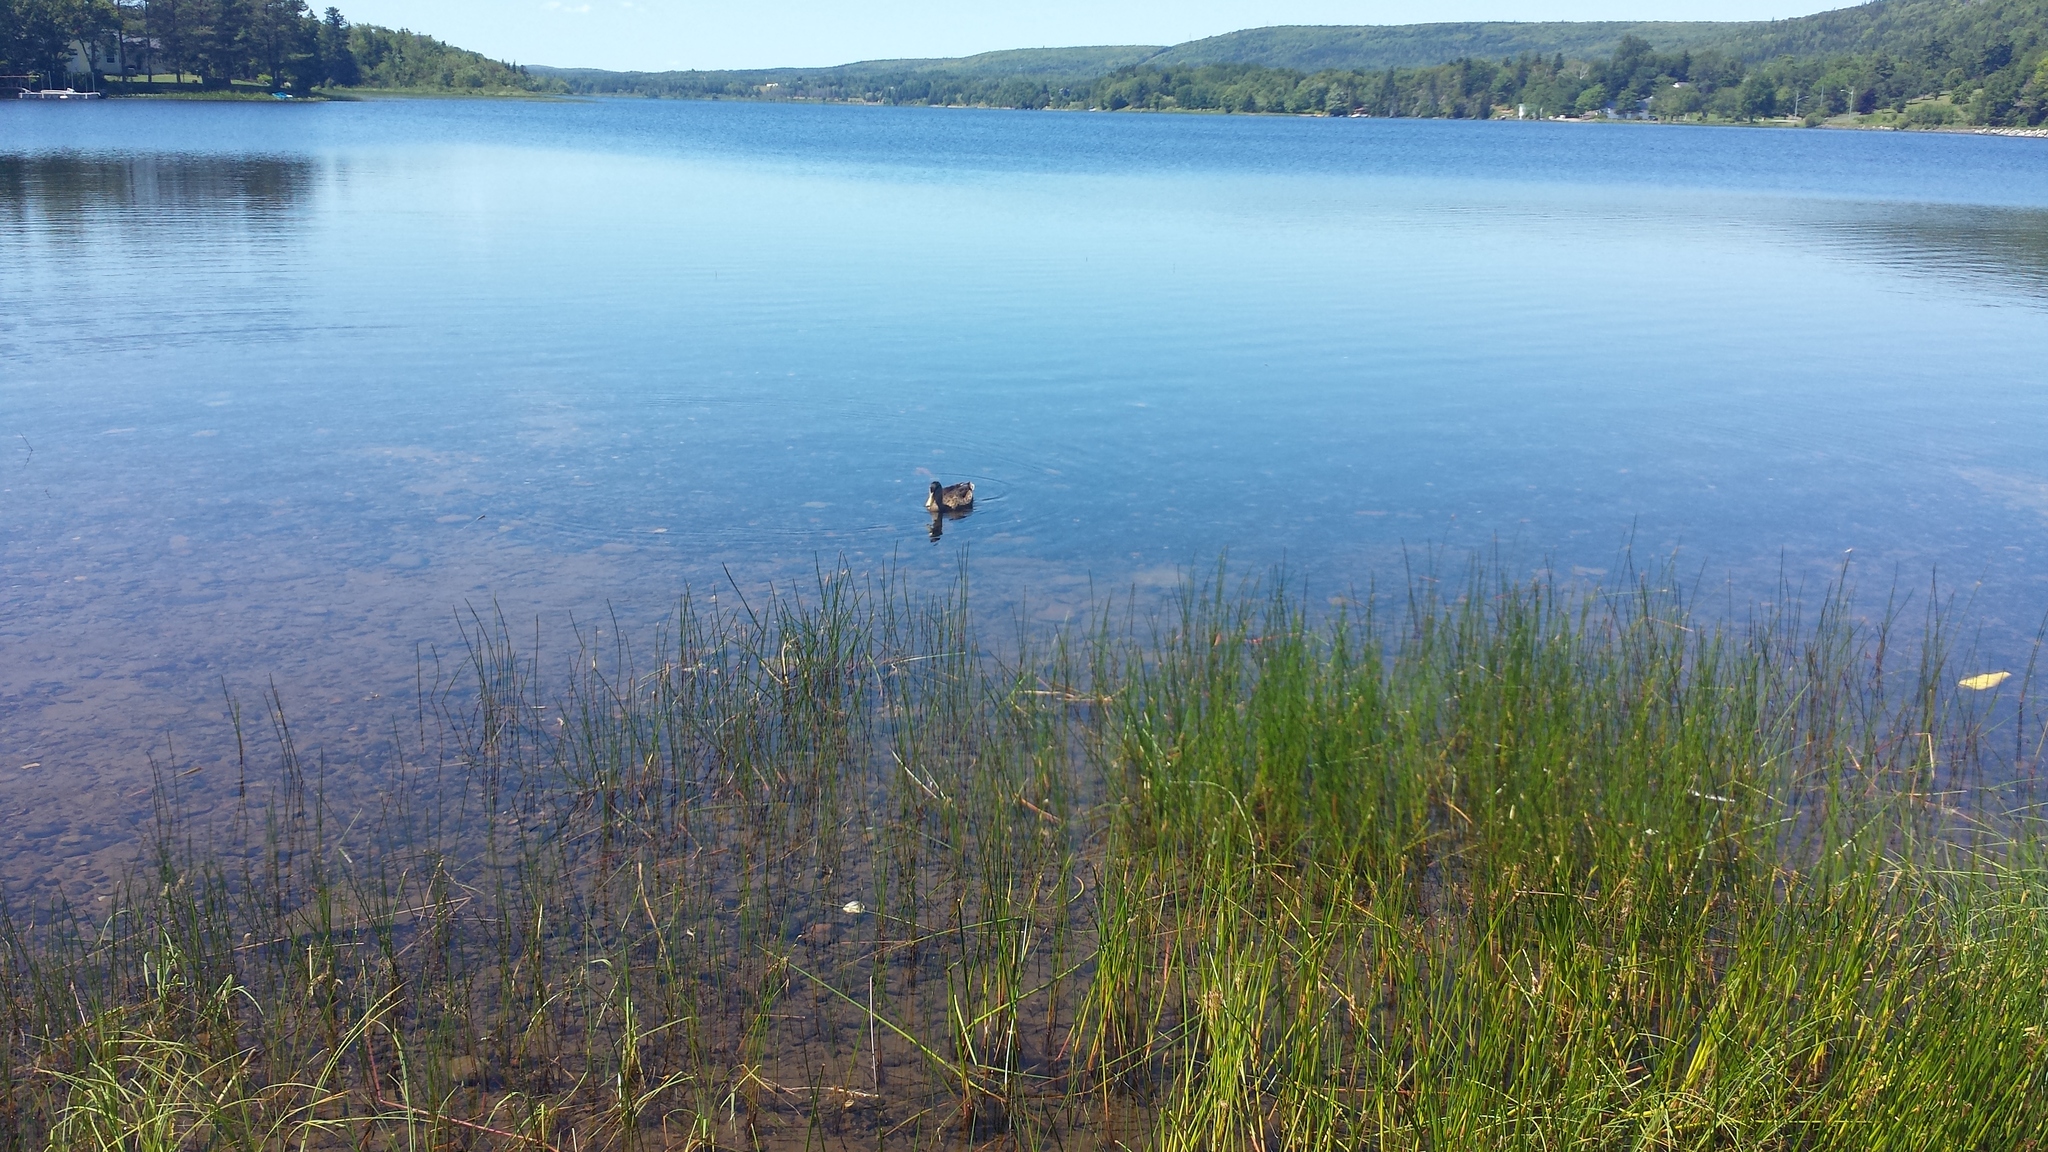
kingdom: Animalia
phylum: Chordata
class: Aves
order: Anseriformes
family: Anatidae
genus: Anas
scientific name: Anas rubripes
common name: American black duck
